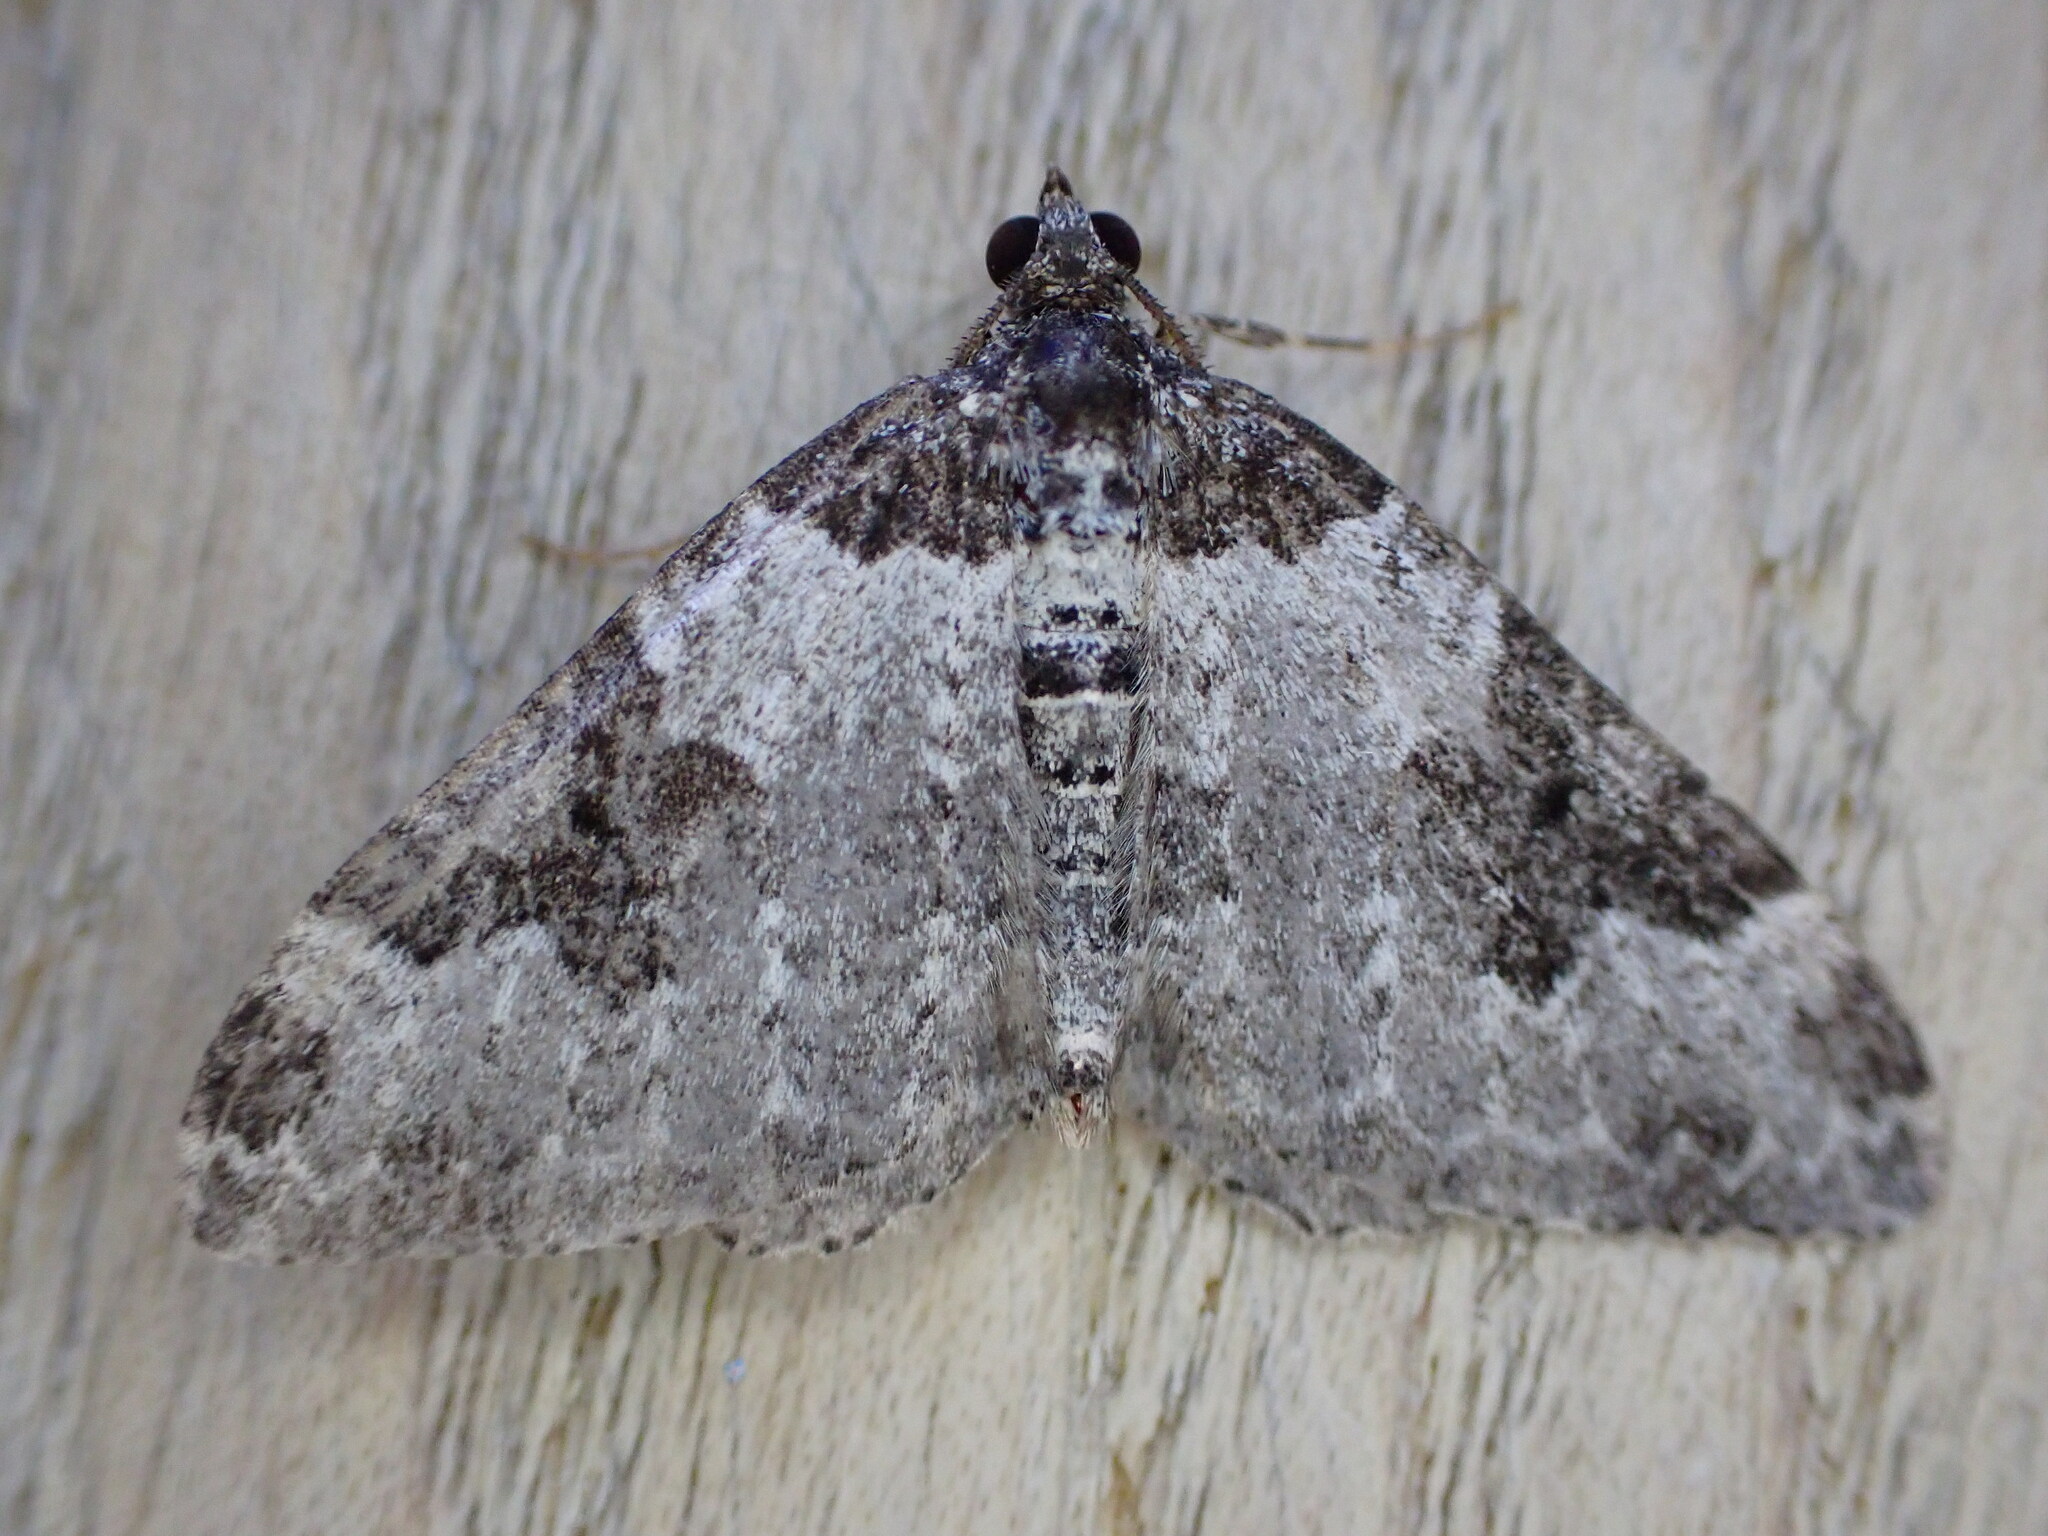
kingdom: Animalia
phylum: Arthropoda
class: Insecta
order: Lepidoptera
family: Geometridae
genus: Xanthorhoe
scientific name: Xanthorhoe fluctuata
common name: Garden carpet
